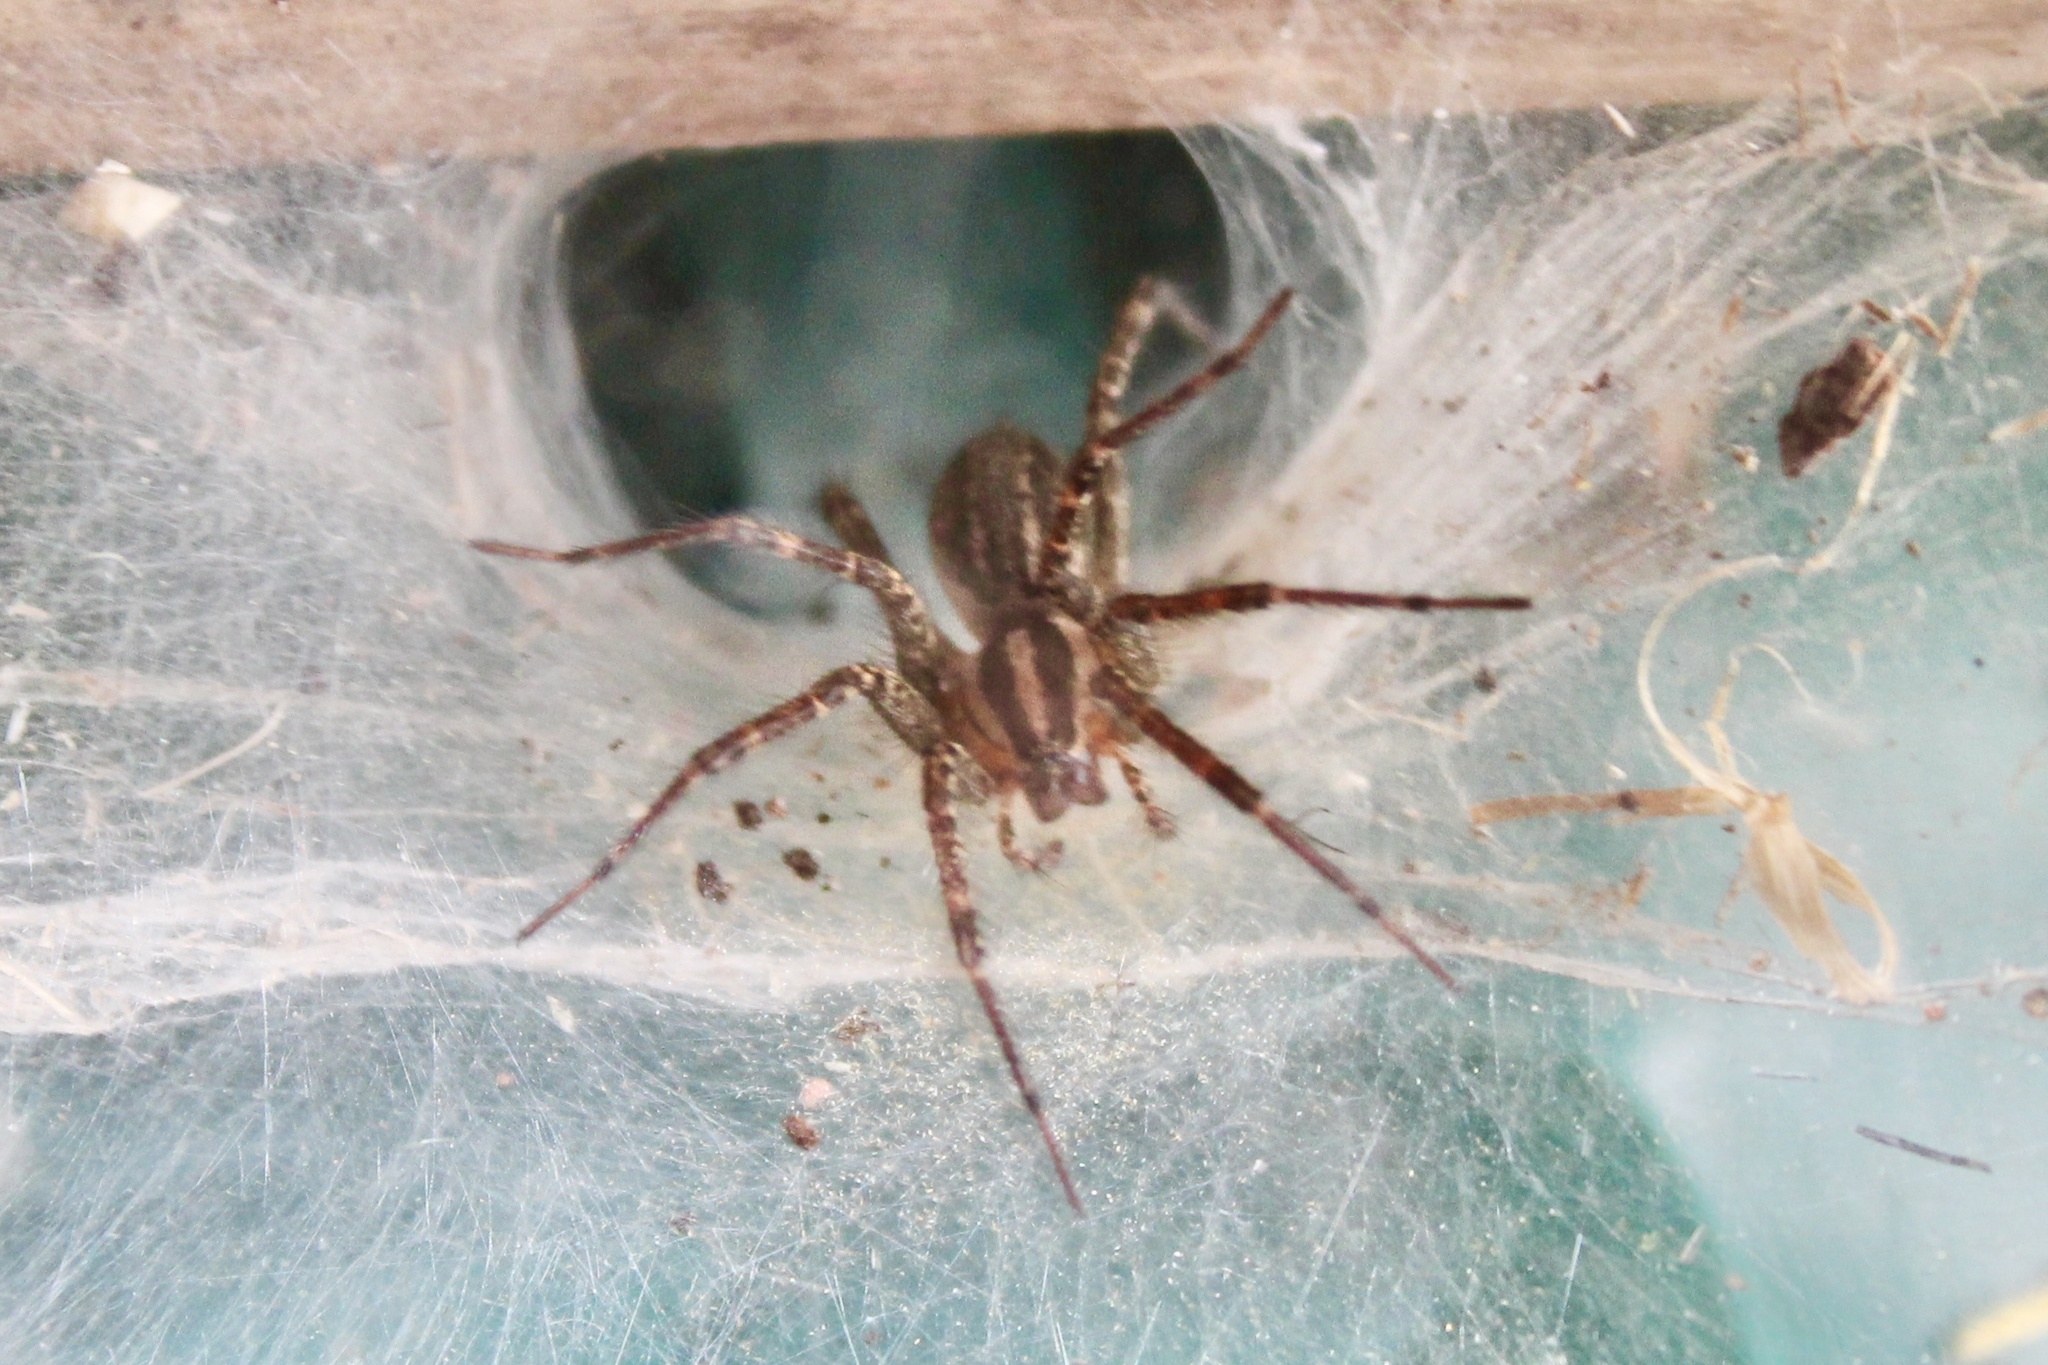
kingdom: Animalia
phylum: Arthropoda
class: Arachnida
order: Araneae
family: Agelenidae
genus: Agelenopsis
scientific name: Agelenopsis
